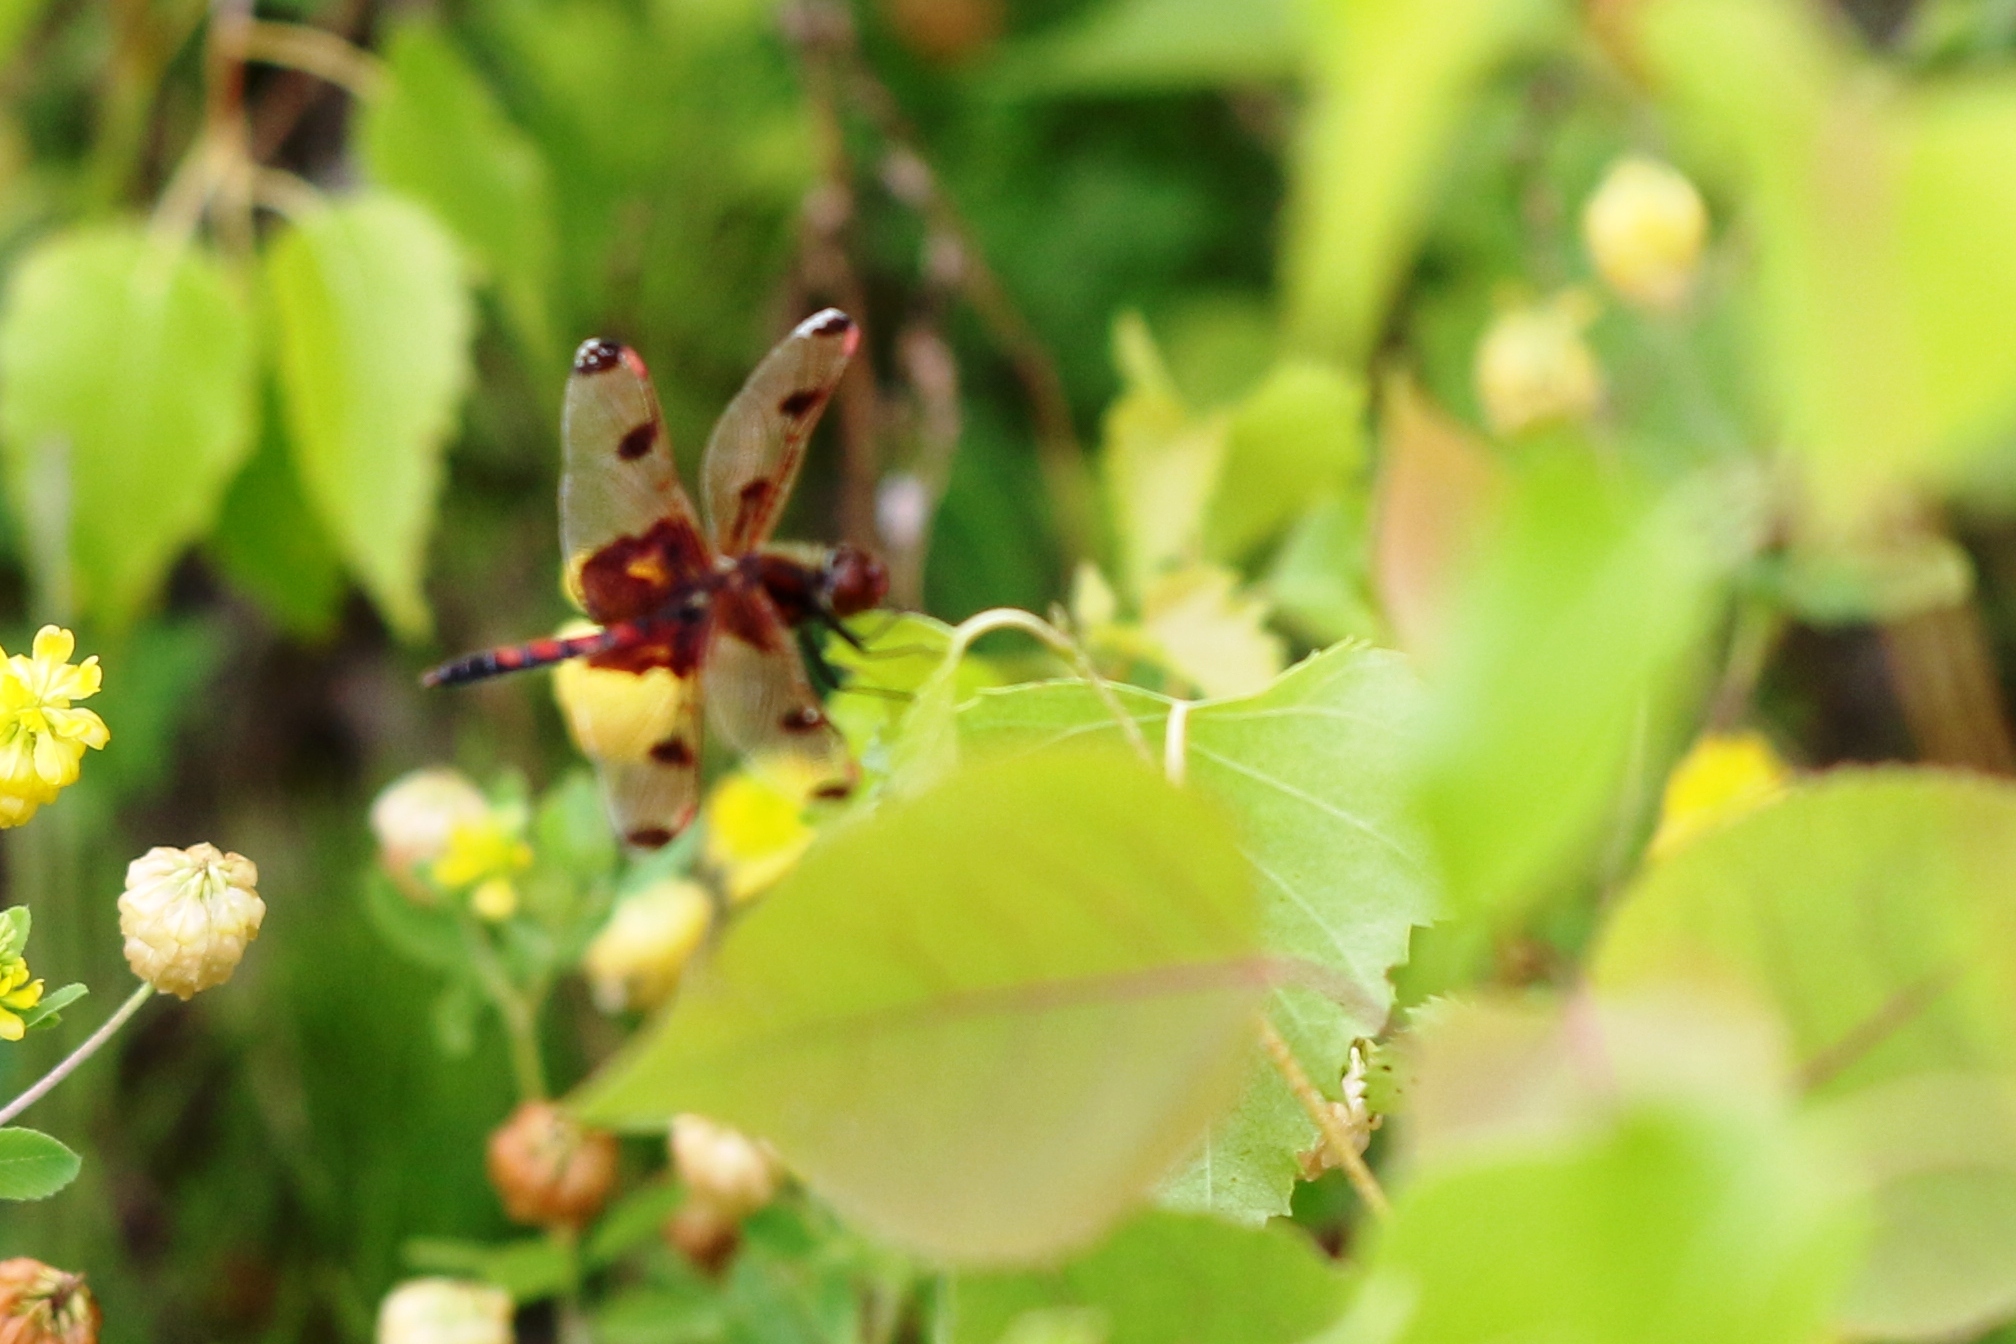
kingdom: Animalia
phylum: Arthropoda
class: Insecta
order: Odonata
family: Libellulidae
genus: Celithemis
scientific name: Celithemis elisa
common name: Calico pennant
